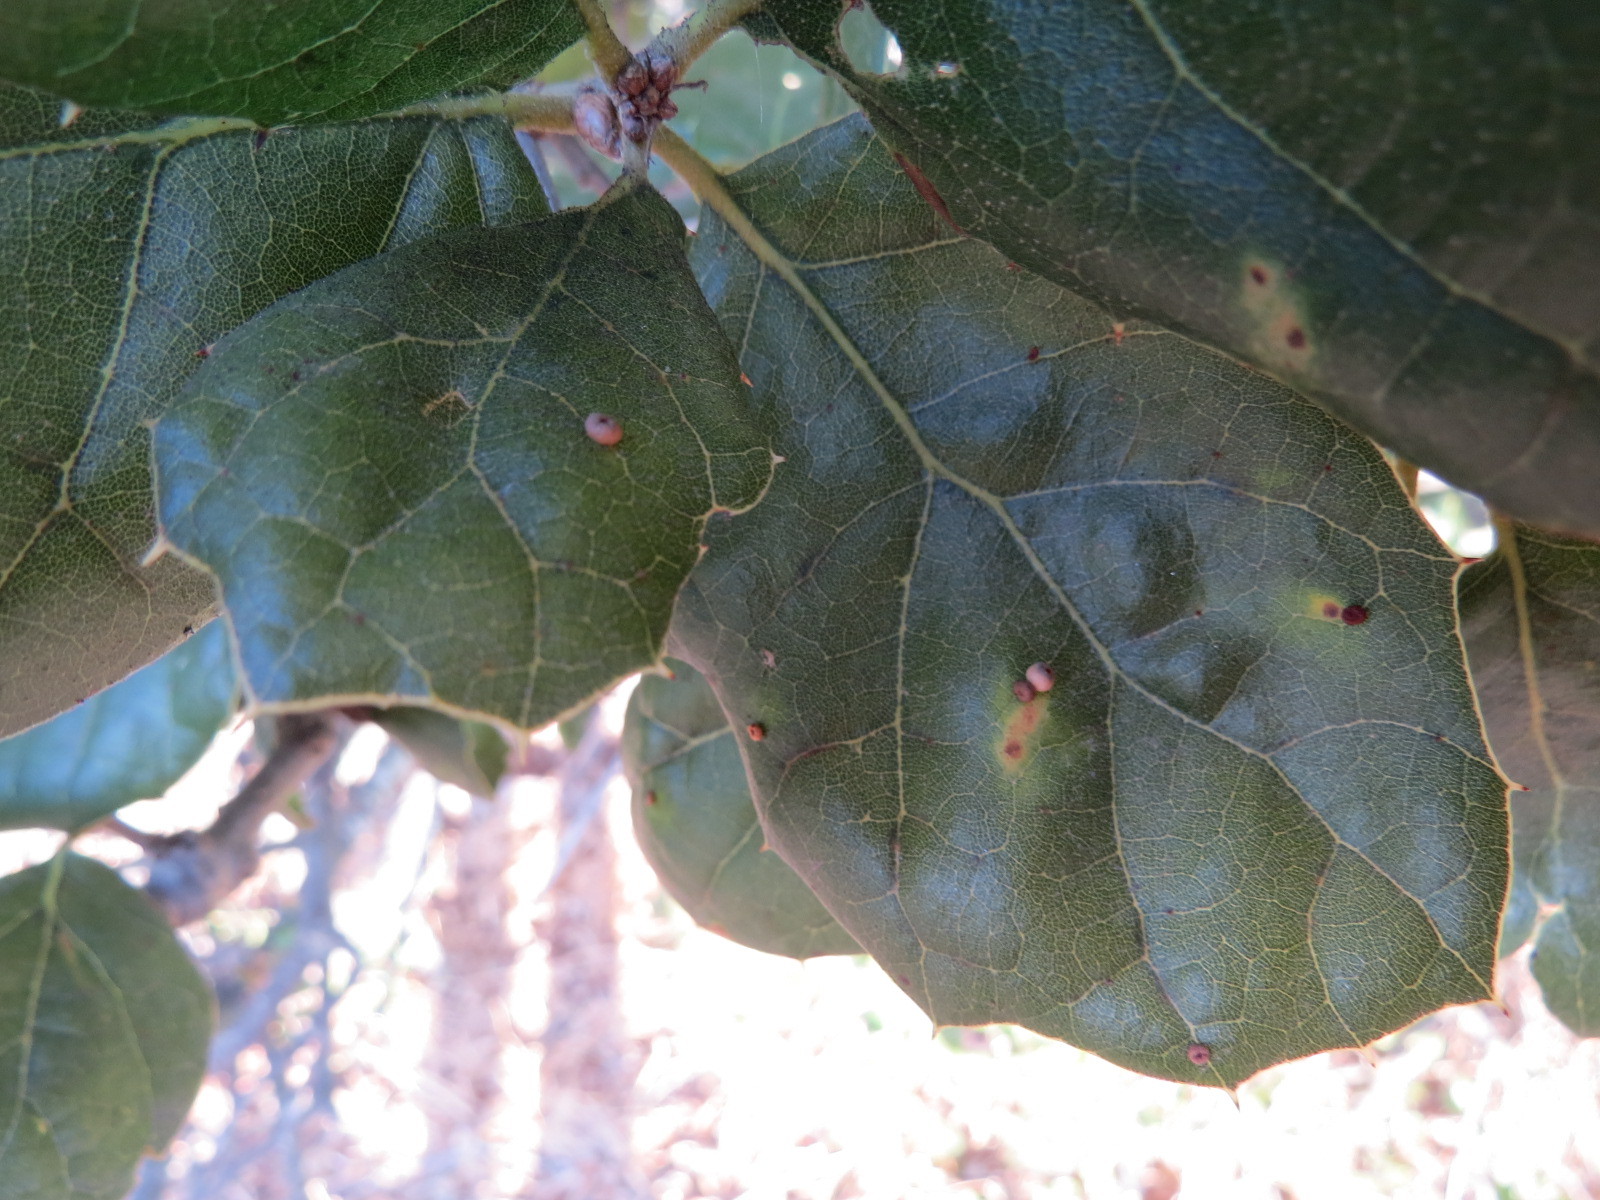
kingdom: Animalia
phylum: Arthropoda
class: Insecta
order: Hymenoptera
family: Cynipidae
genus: Dryocosmus
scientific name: Dryocosmus
